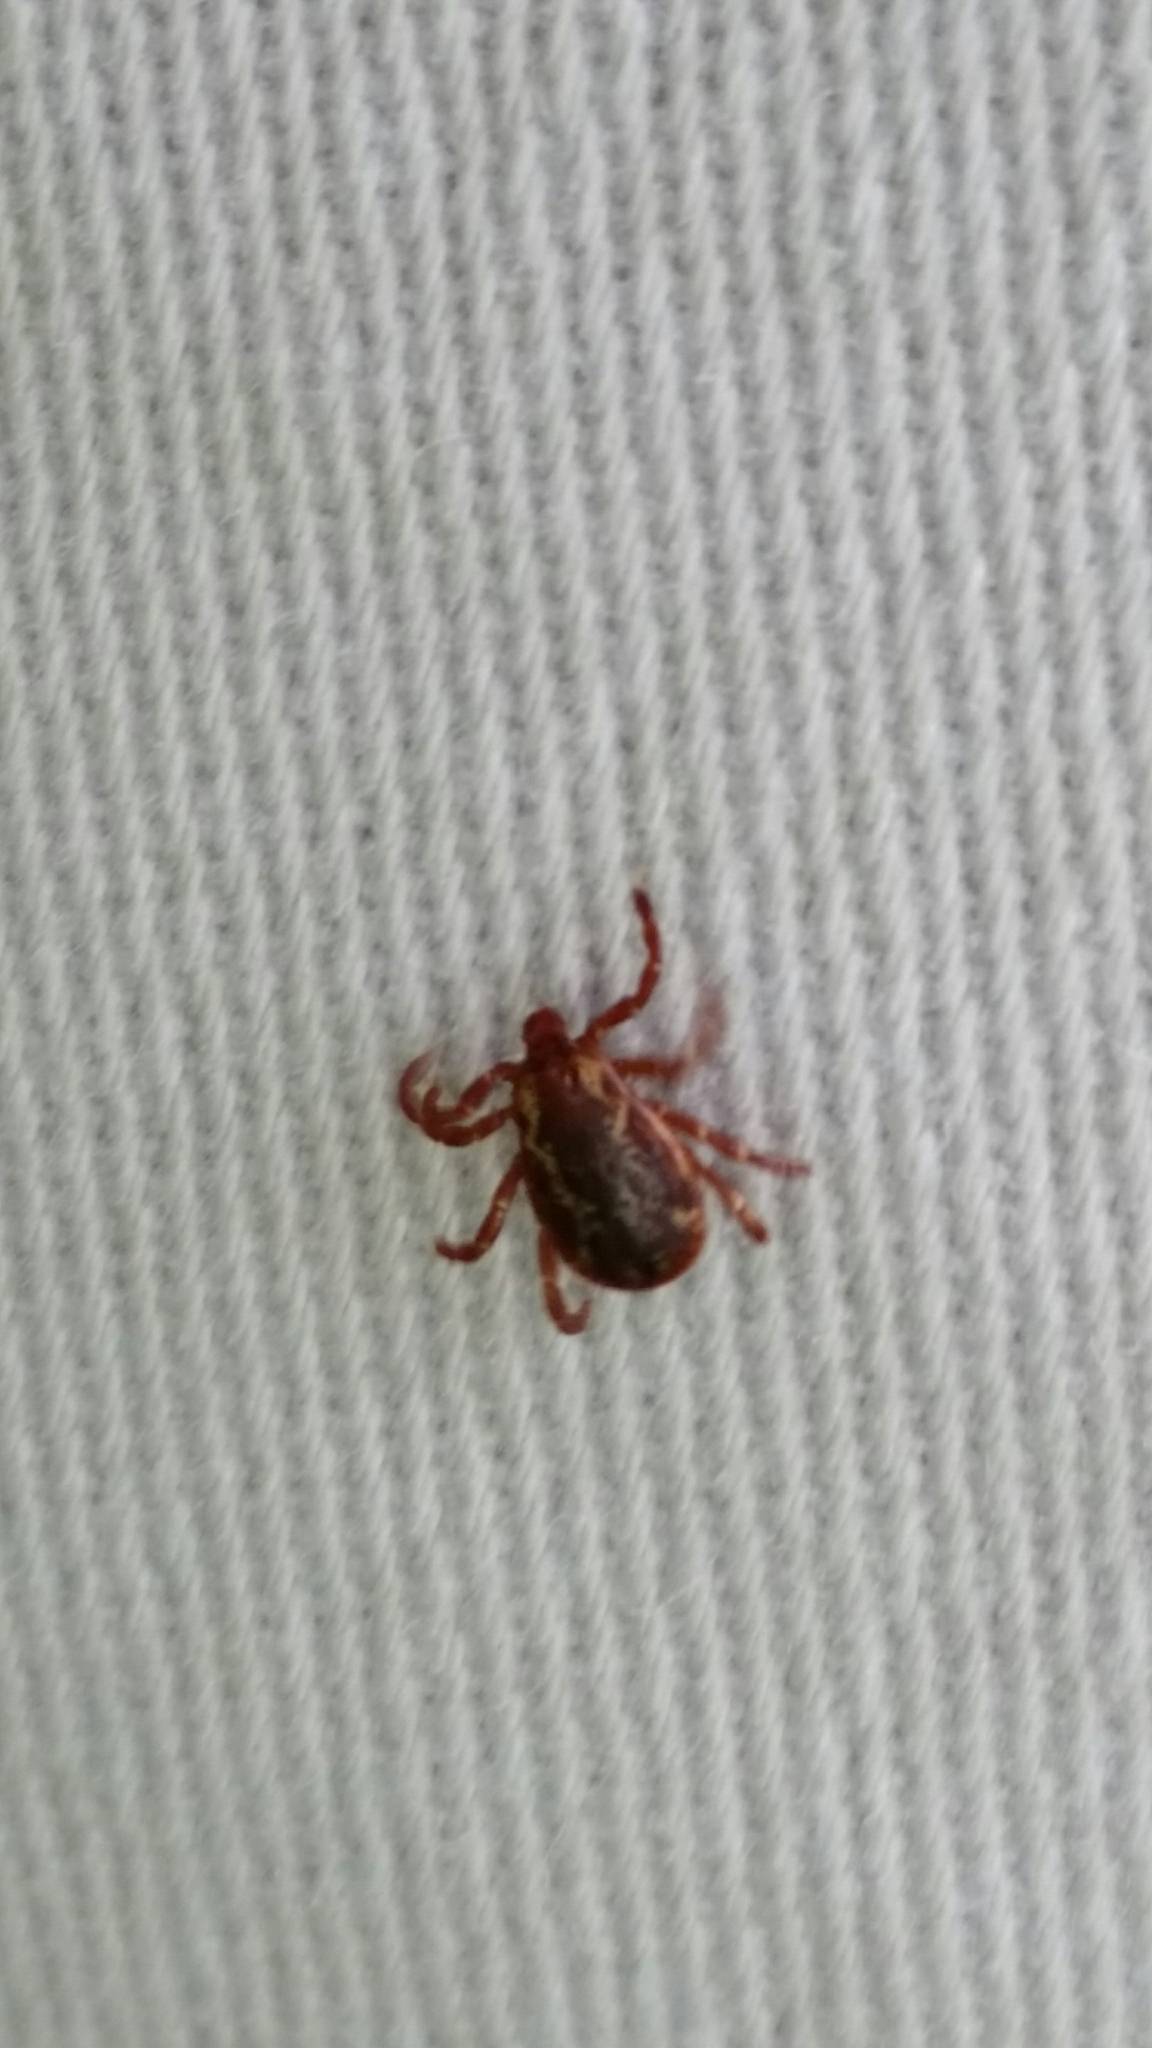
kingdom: Animalia
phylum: Arthropoda
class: Arachnida
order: Ixodida
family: Ixodidae
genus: Dermacentor
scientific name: Dermacentor variabilis
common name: American dog tick
